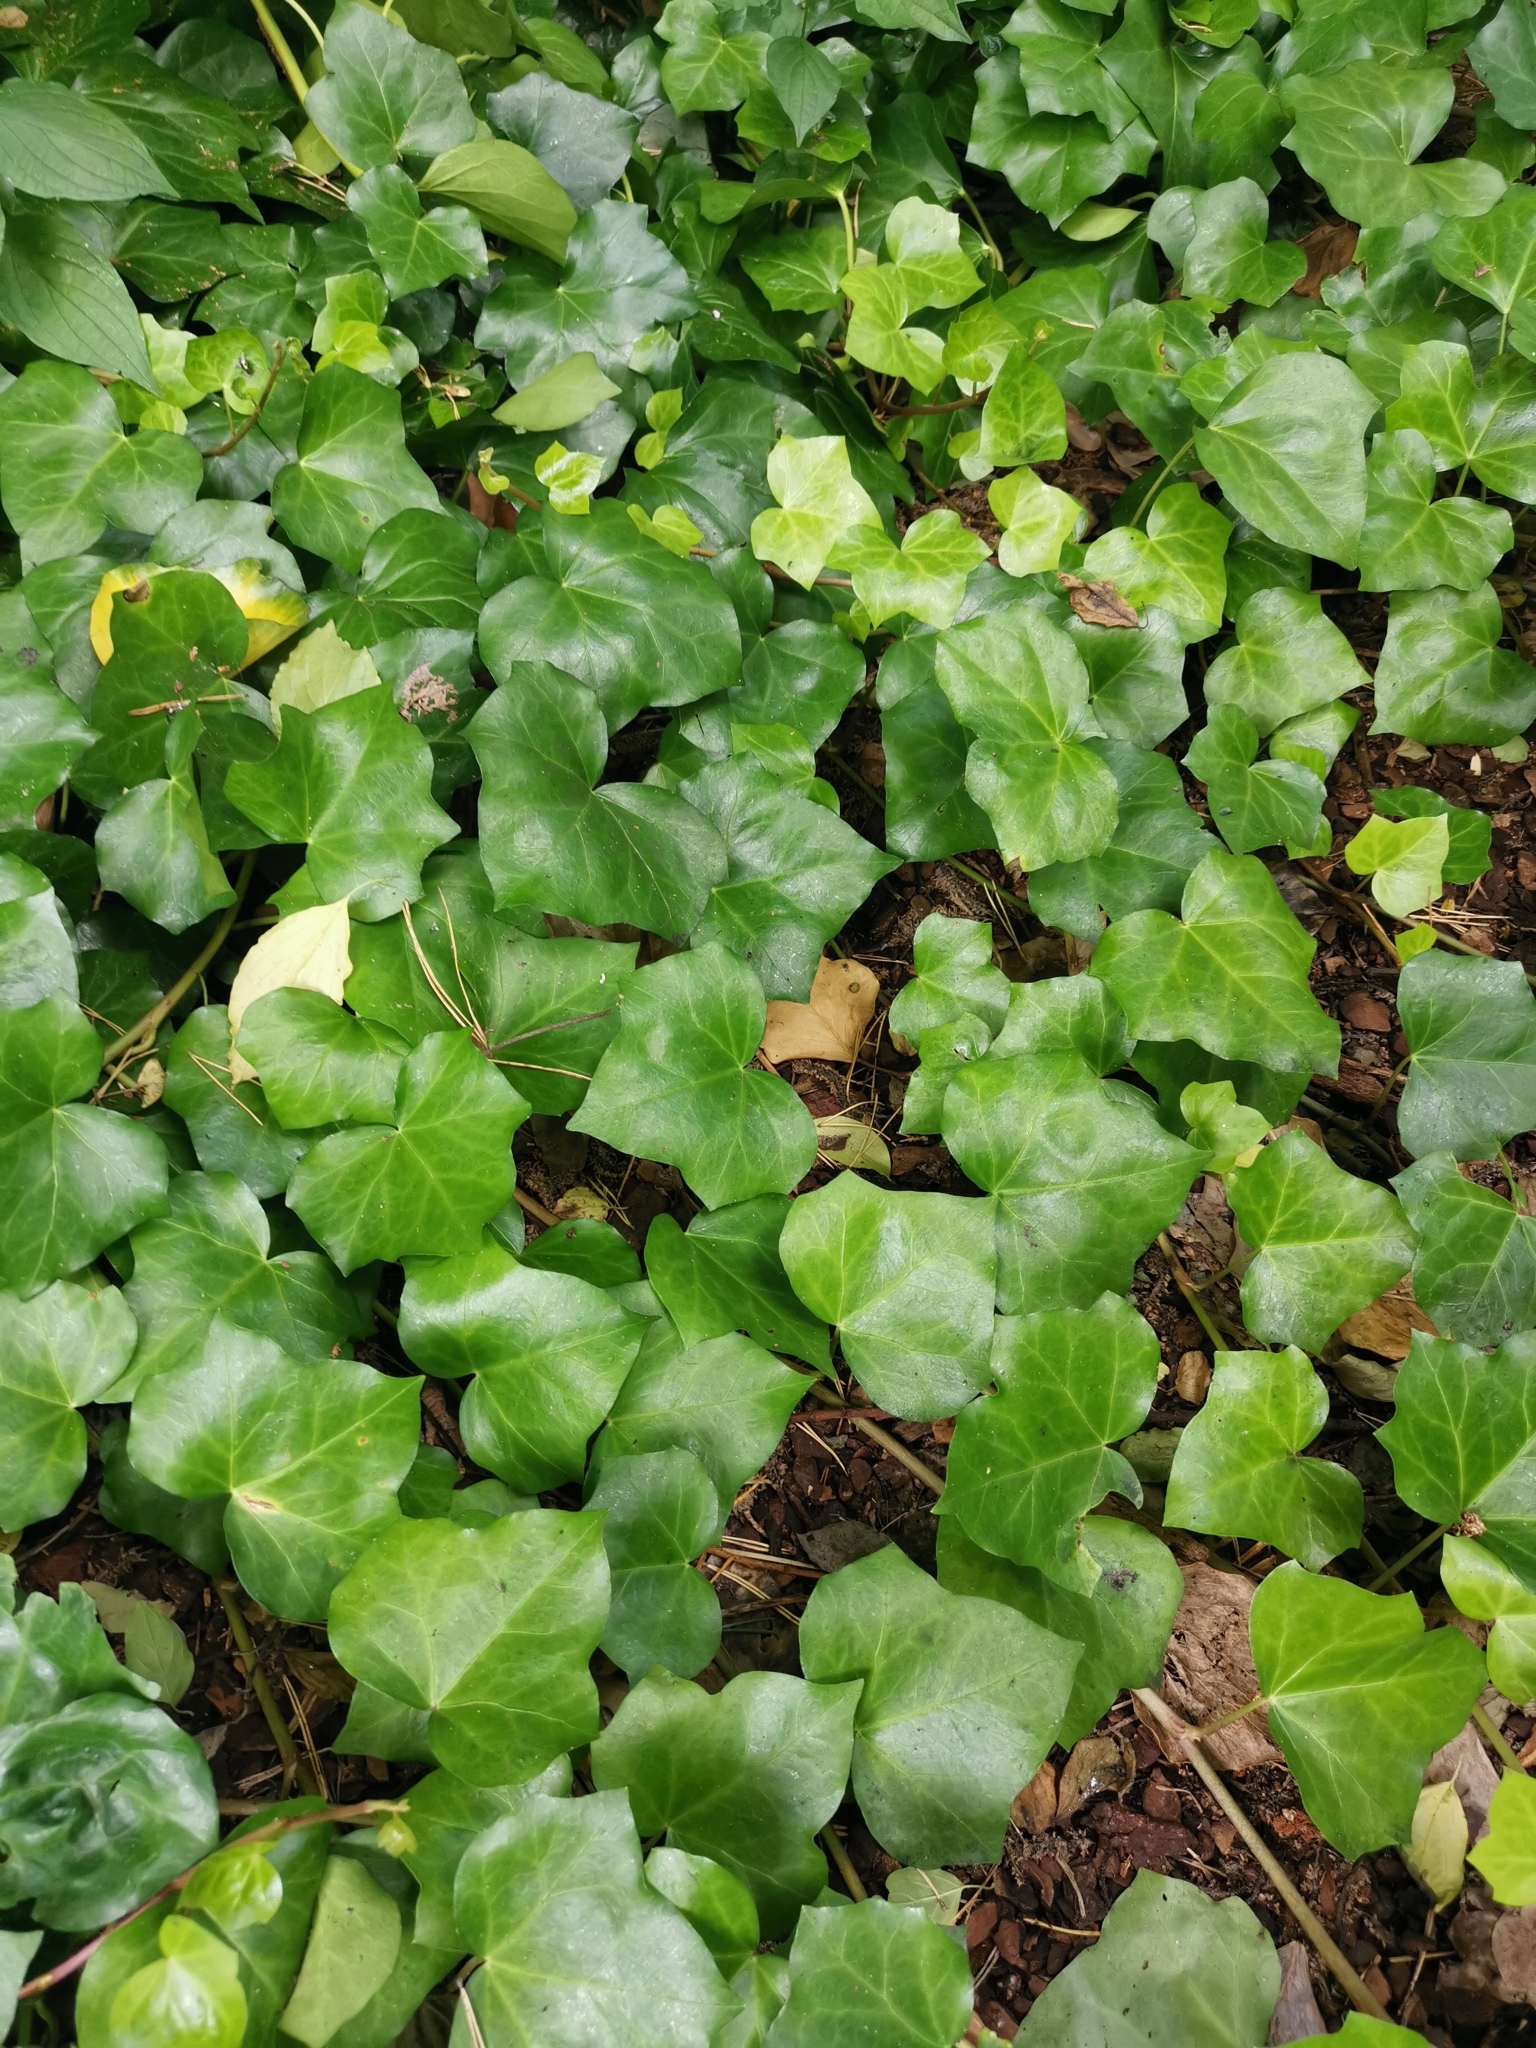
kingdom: Plantae
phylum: Tracheophyta
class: Magnoliopsida
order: Apiales
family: Araliaceae
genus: Hedera
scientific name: Hedera helix
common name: Ivy
